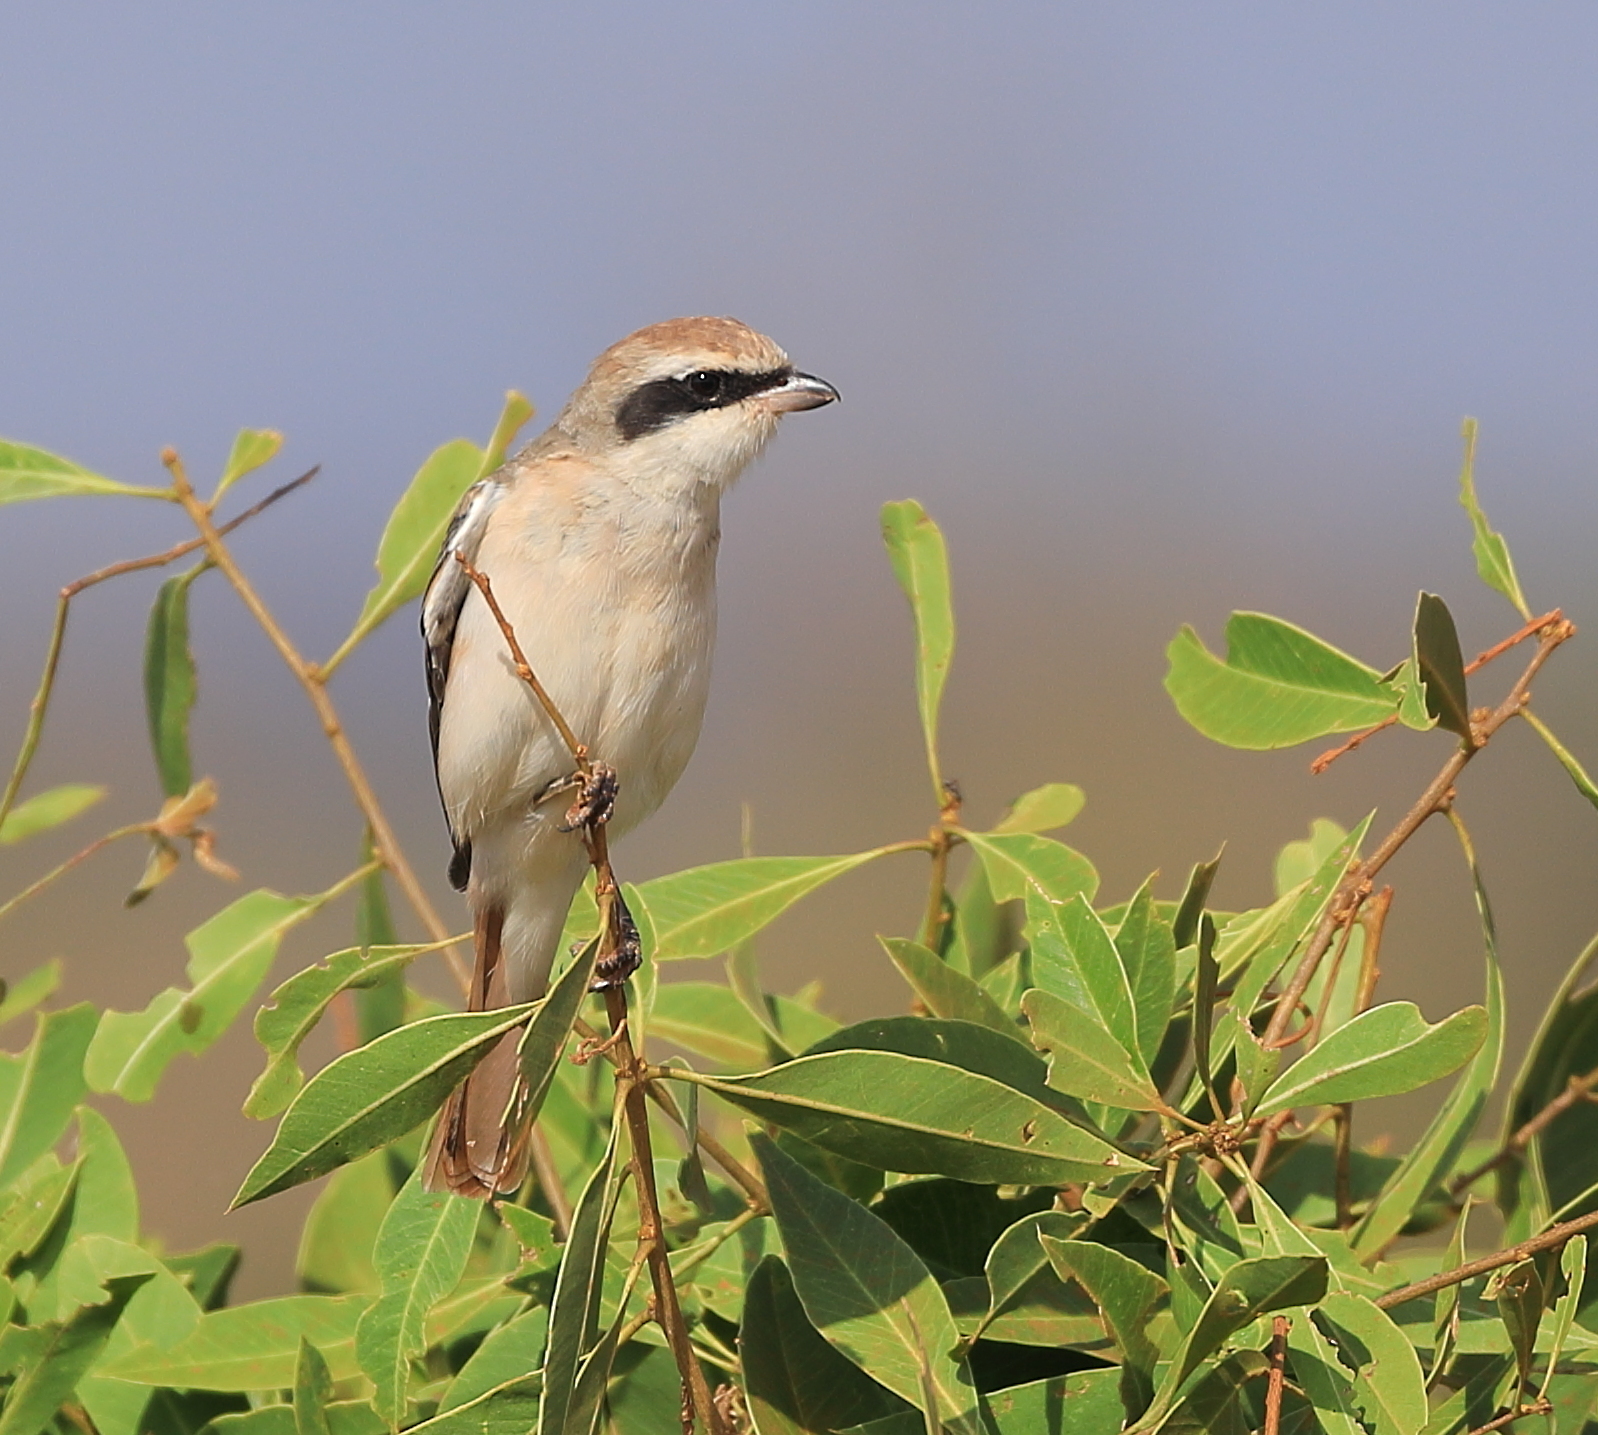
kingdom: Animalia
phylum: Chordata
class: Aves
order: Passeriformes
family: Laniidae
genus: Lanius
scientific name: Lanius phoenicuroides
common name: Red-tailed shrike
